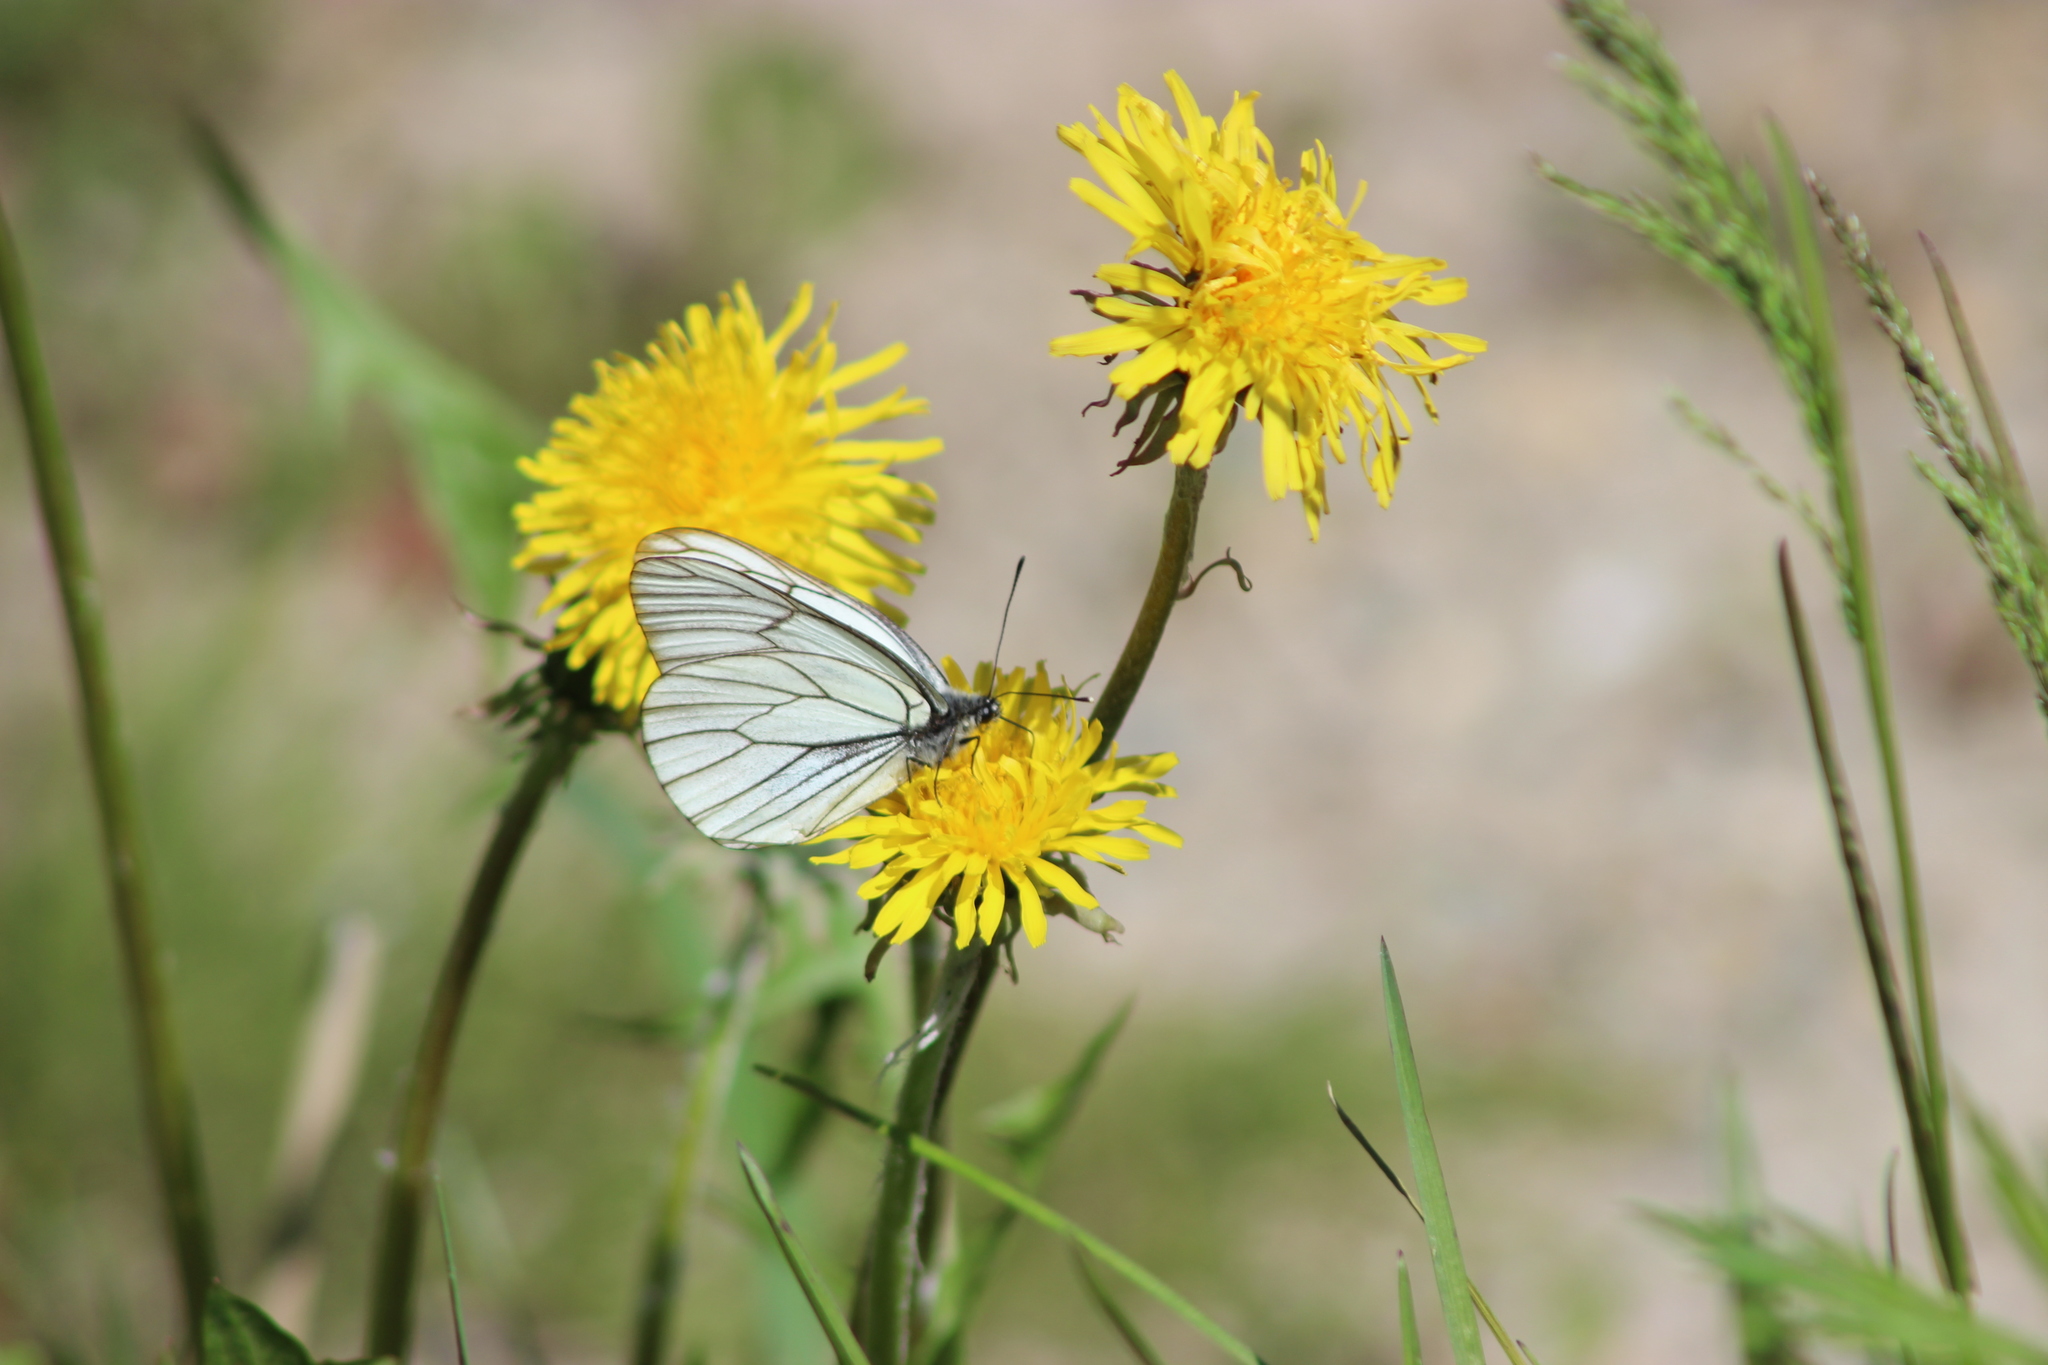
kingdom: Animalia
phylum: Arthropoda
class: Insecta
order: Lepidoptera
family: Pieridae
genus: Aporia
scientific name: Aporia crataegi
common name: Black-veined white
